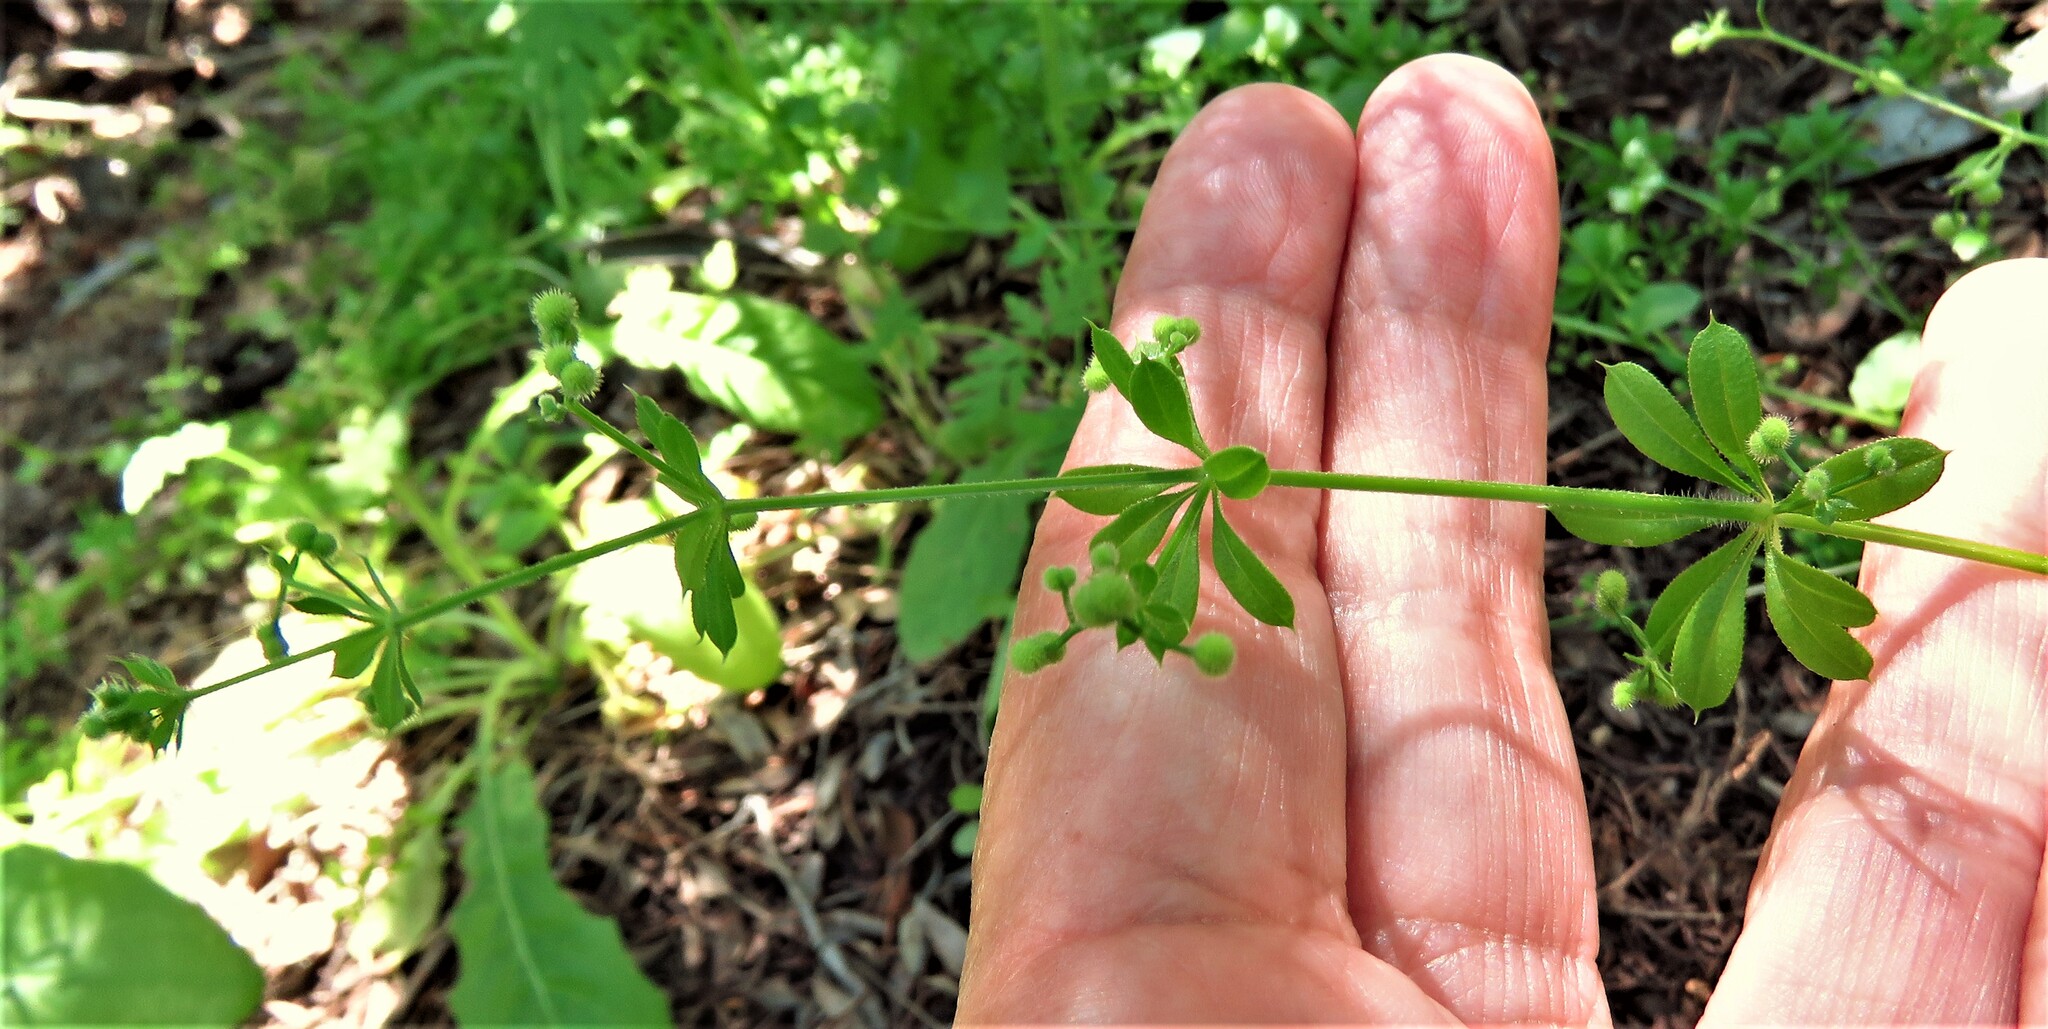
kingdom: Plantae
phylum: Tracheophyta
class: Magnoliopsida
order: Gentianales
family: Rubiaceae
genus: Galium
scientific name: Galium aparine
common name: Cleavers
